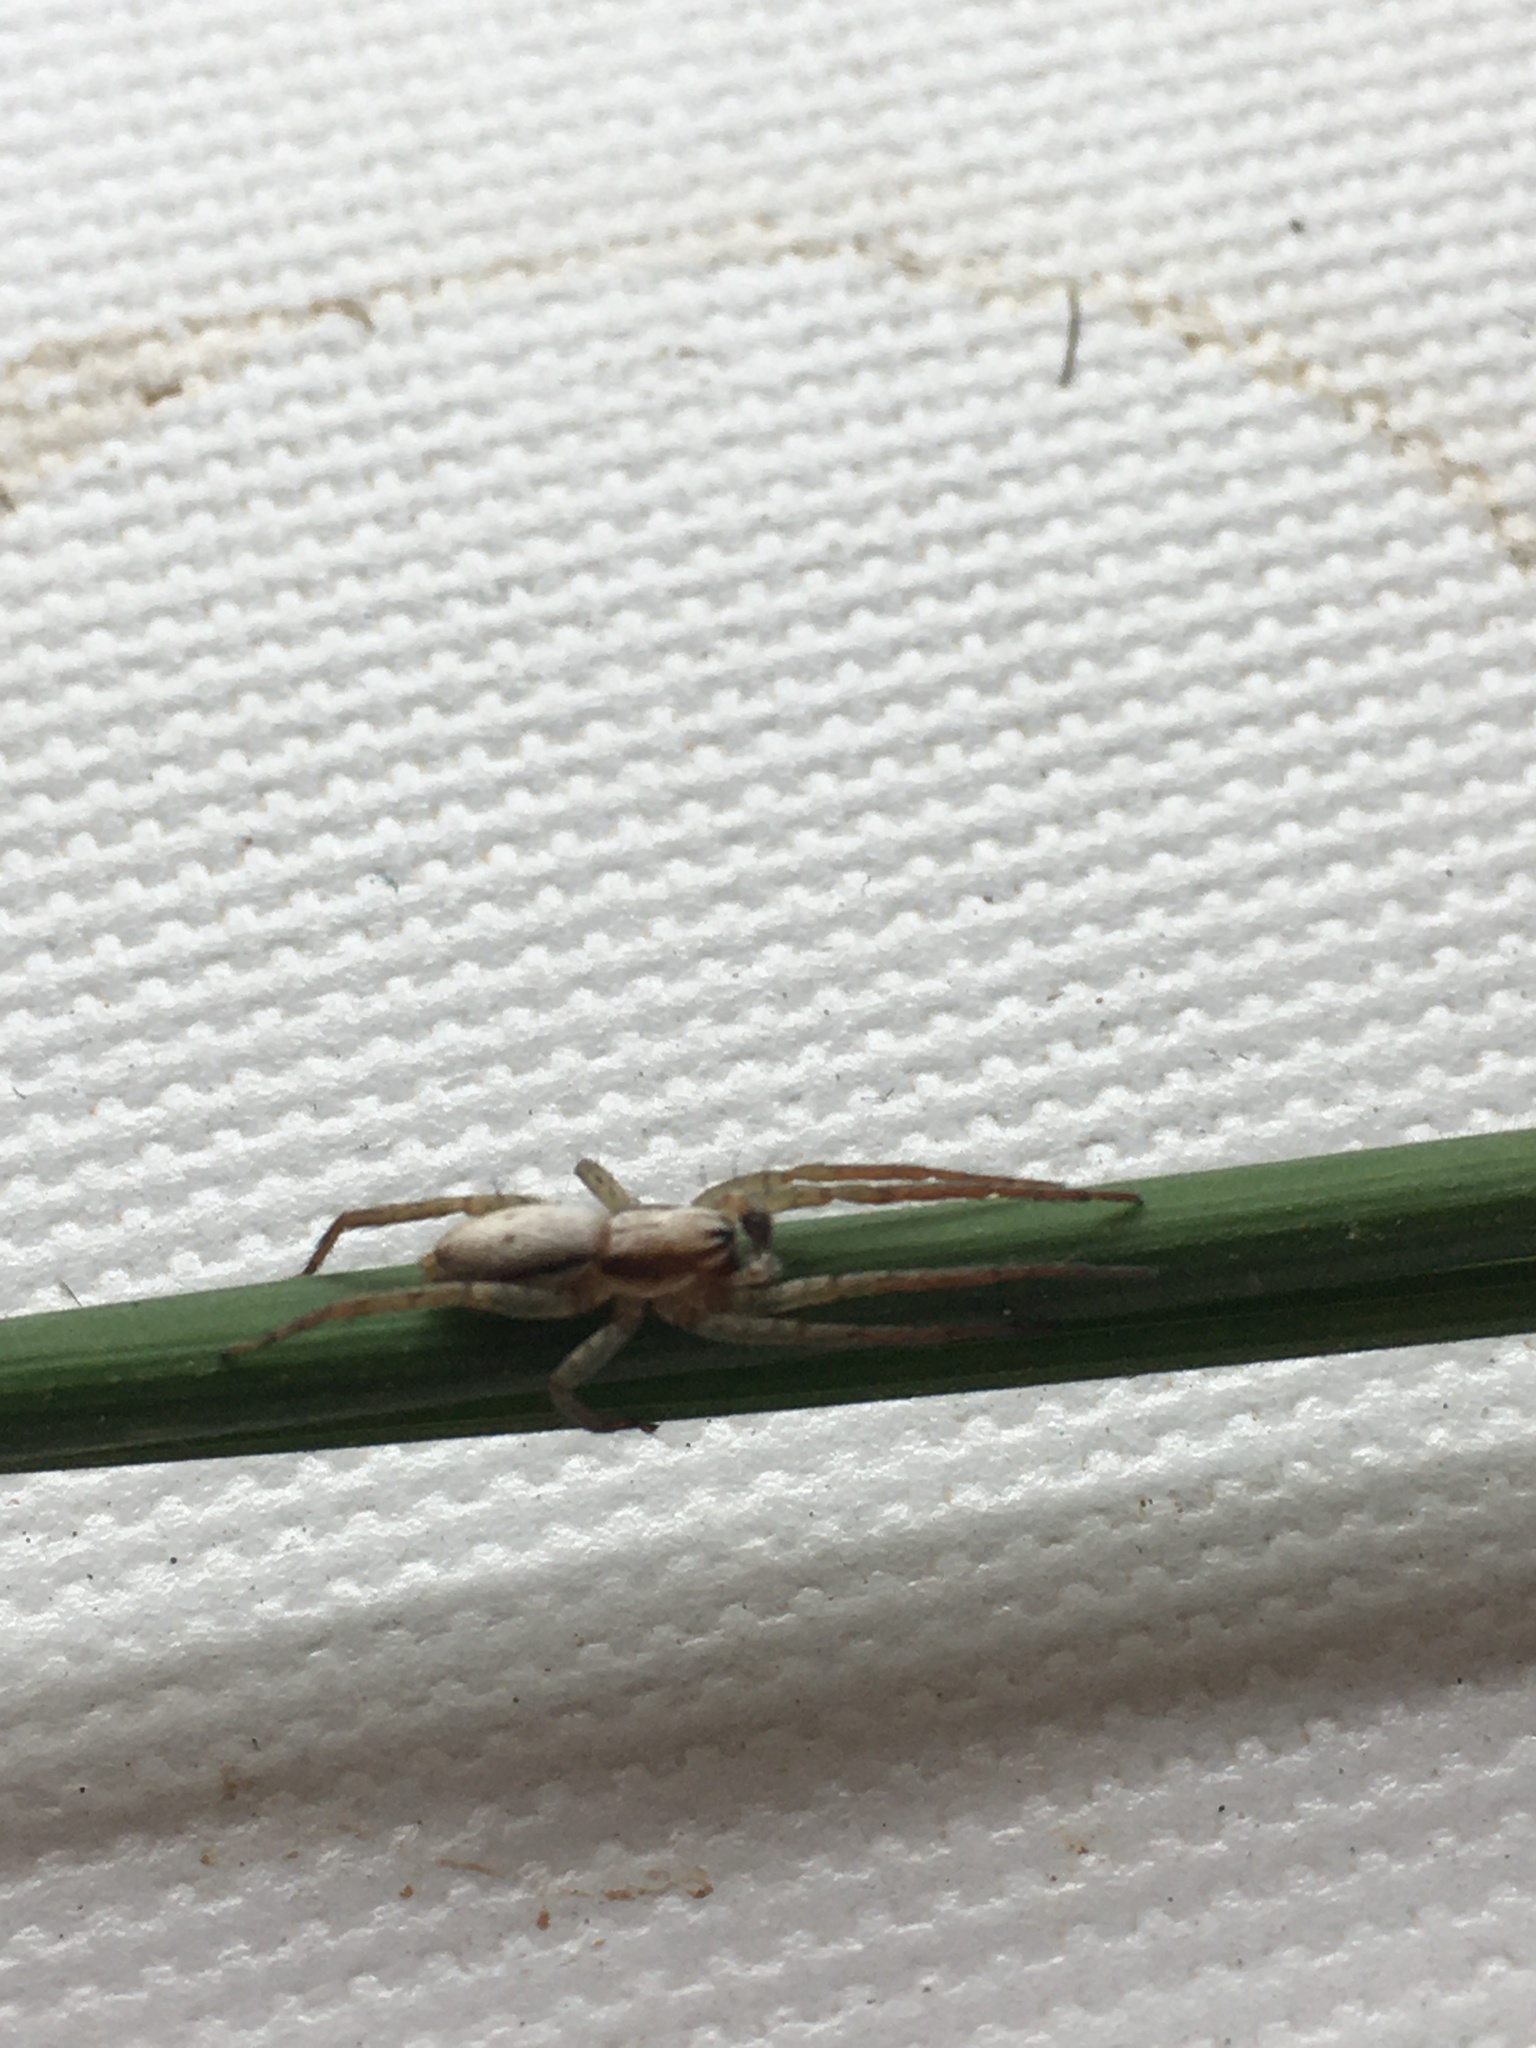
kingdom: Animalia
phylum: Arthropoda
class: Arachnida
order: Araneae
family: Anyphaenidae
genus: Josa
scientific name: Josa keyserlingi
